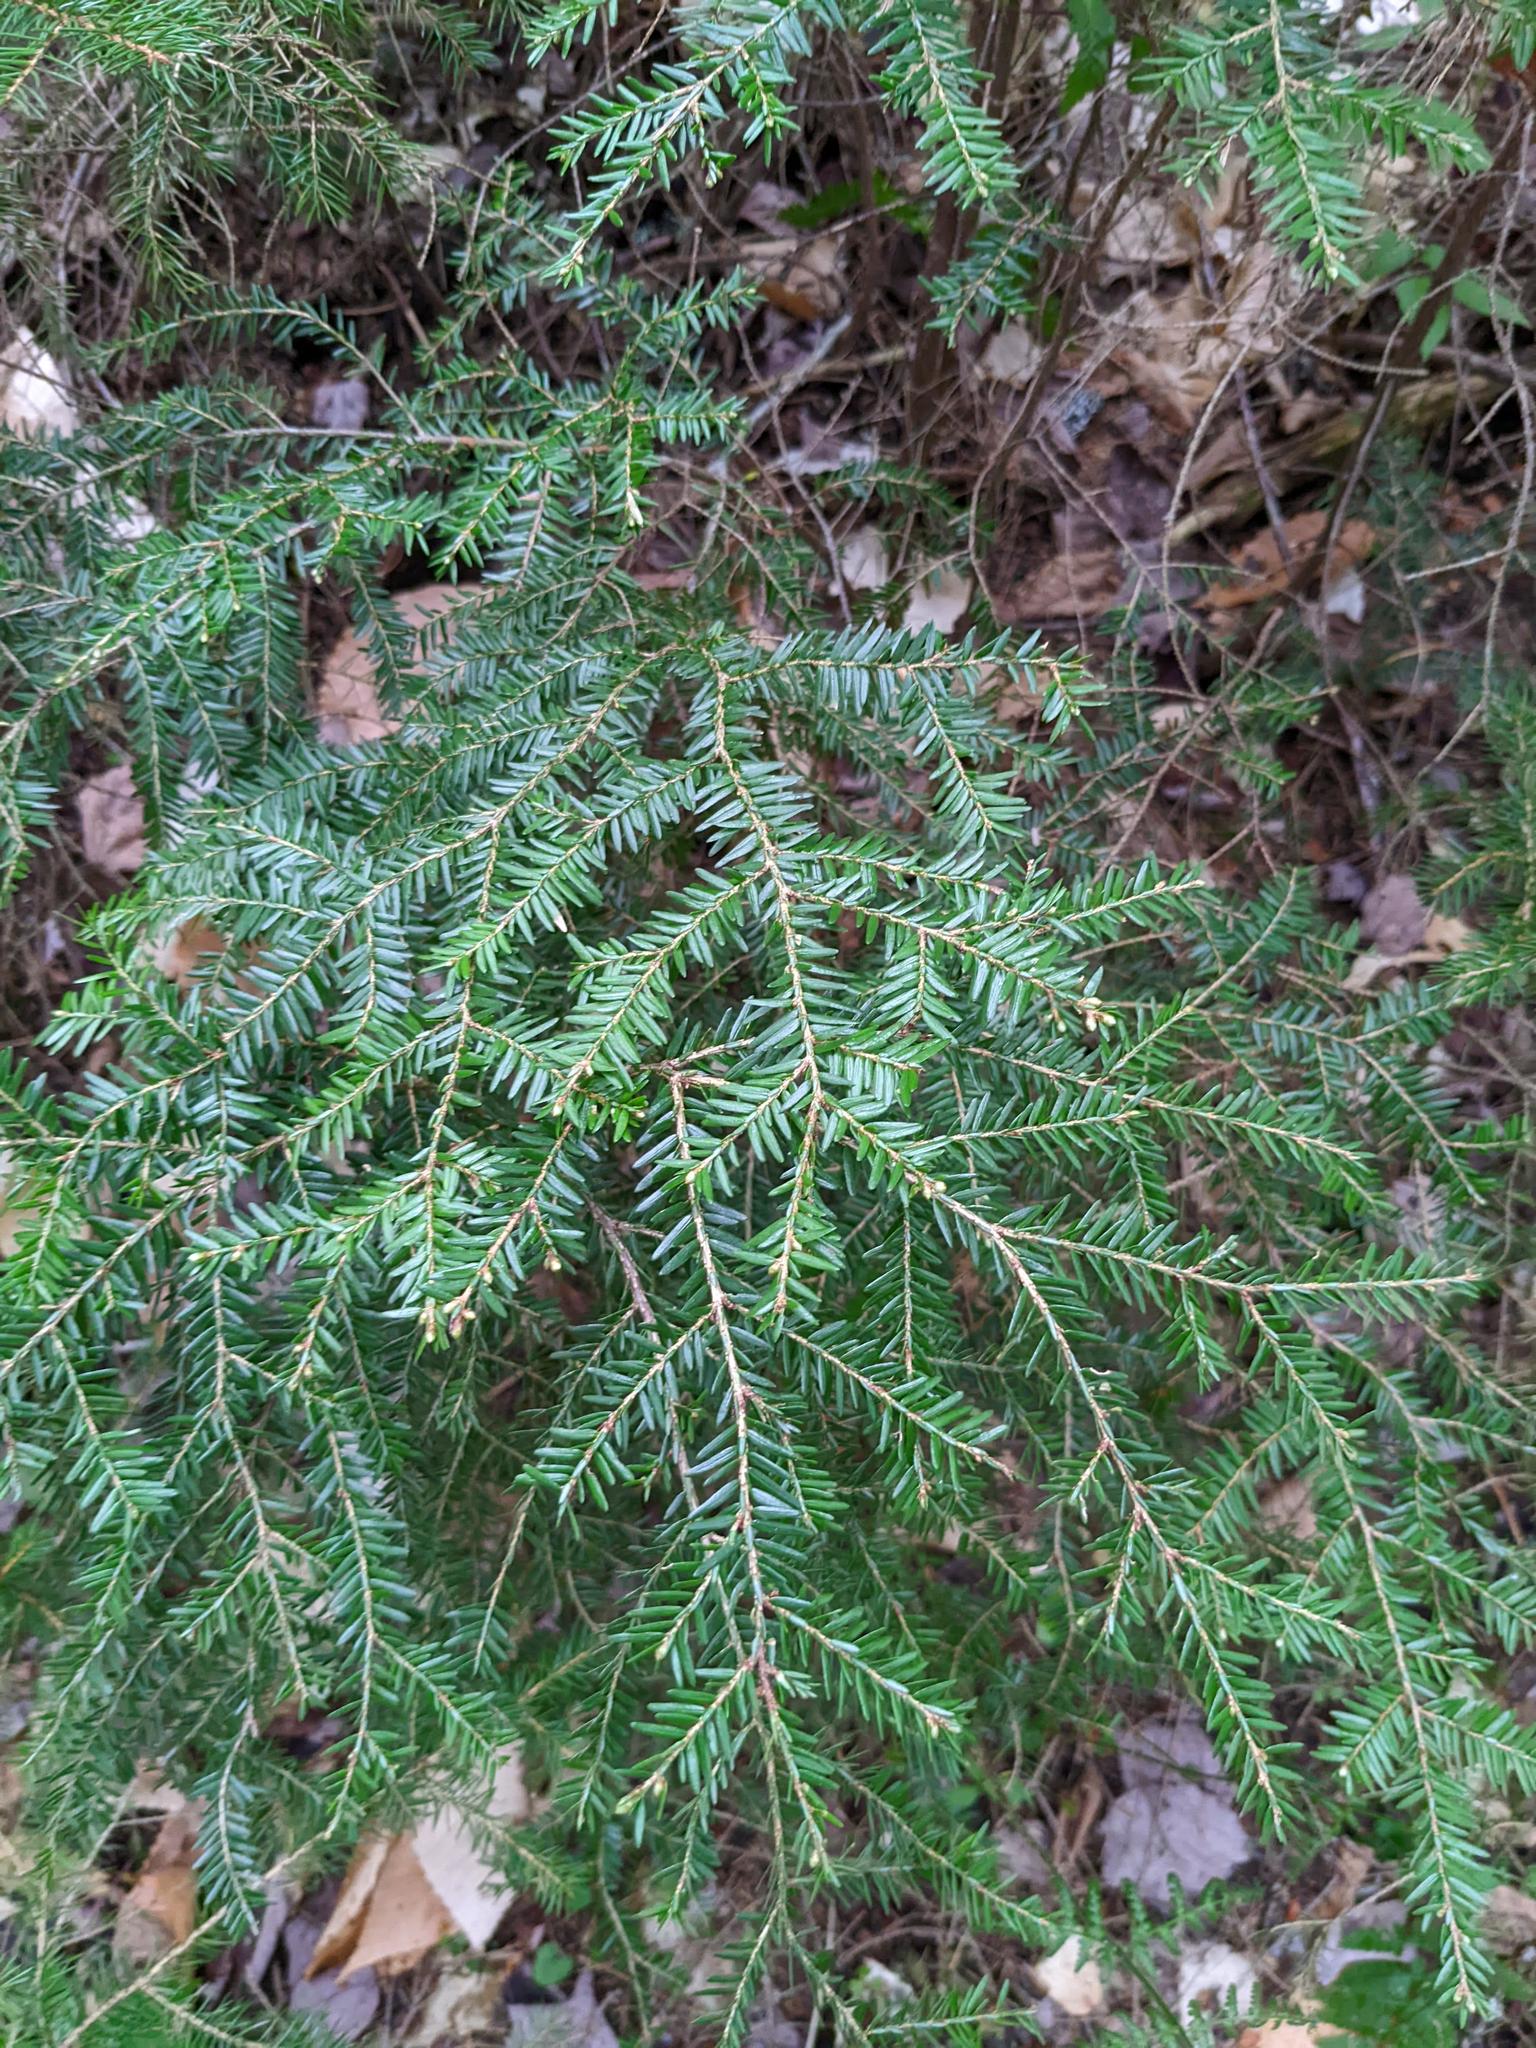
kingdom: Plantae
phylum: Tracheophyta
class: Pinopsida
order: Pinales
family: Pinaceae
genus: Tsuga
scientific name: Tsuga canadensis
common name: Eastern hemlock
